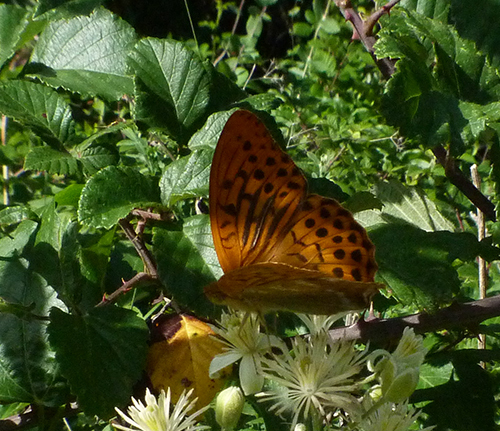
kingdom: Animalia
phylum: Arthropoda
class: Insecta
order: Lepidoptera
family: Nymphalidae
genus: Melanargia
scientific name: Melanargia lachesis
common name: Iberian marbled white
